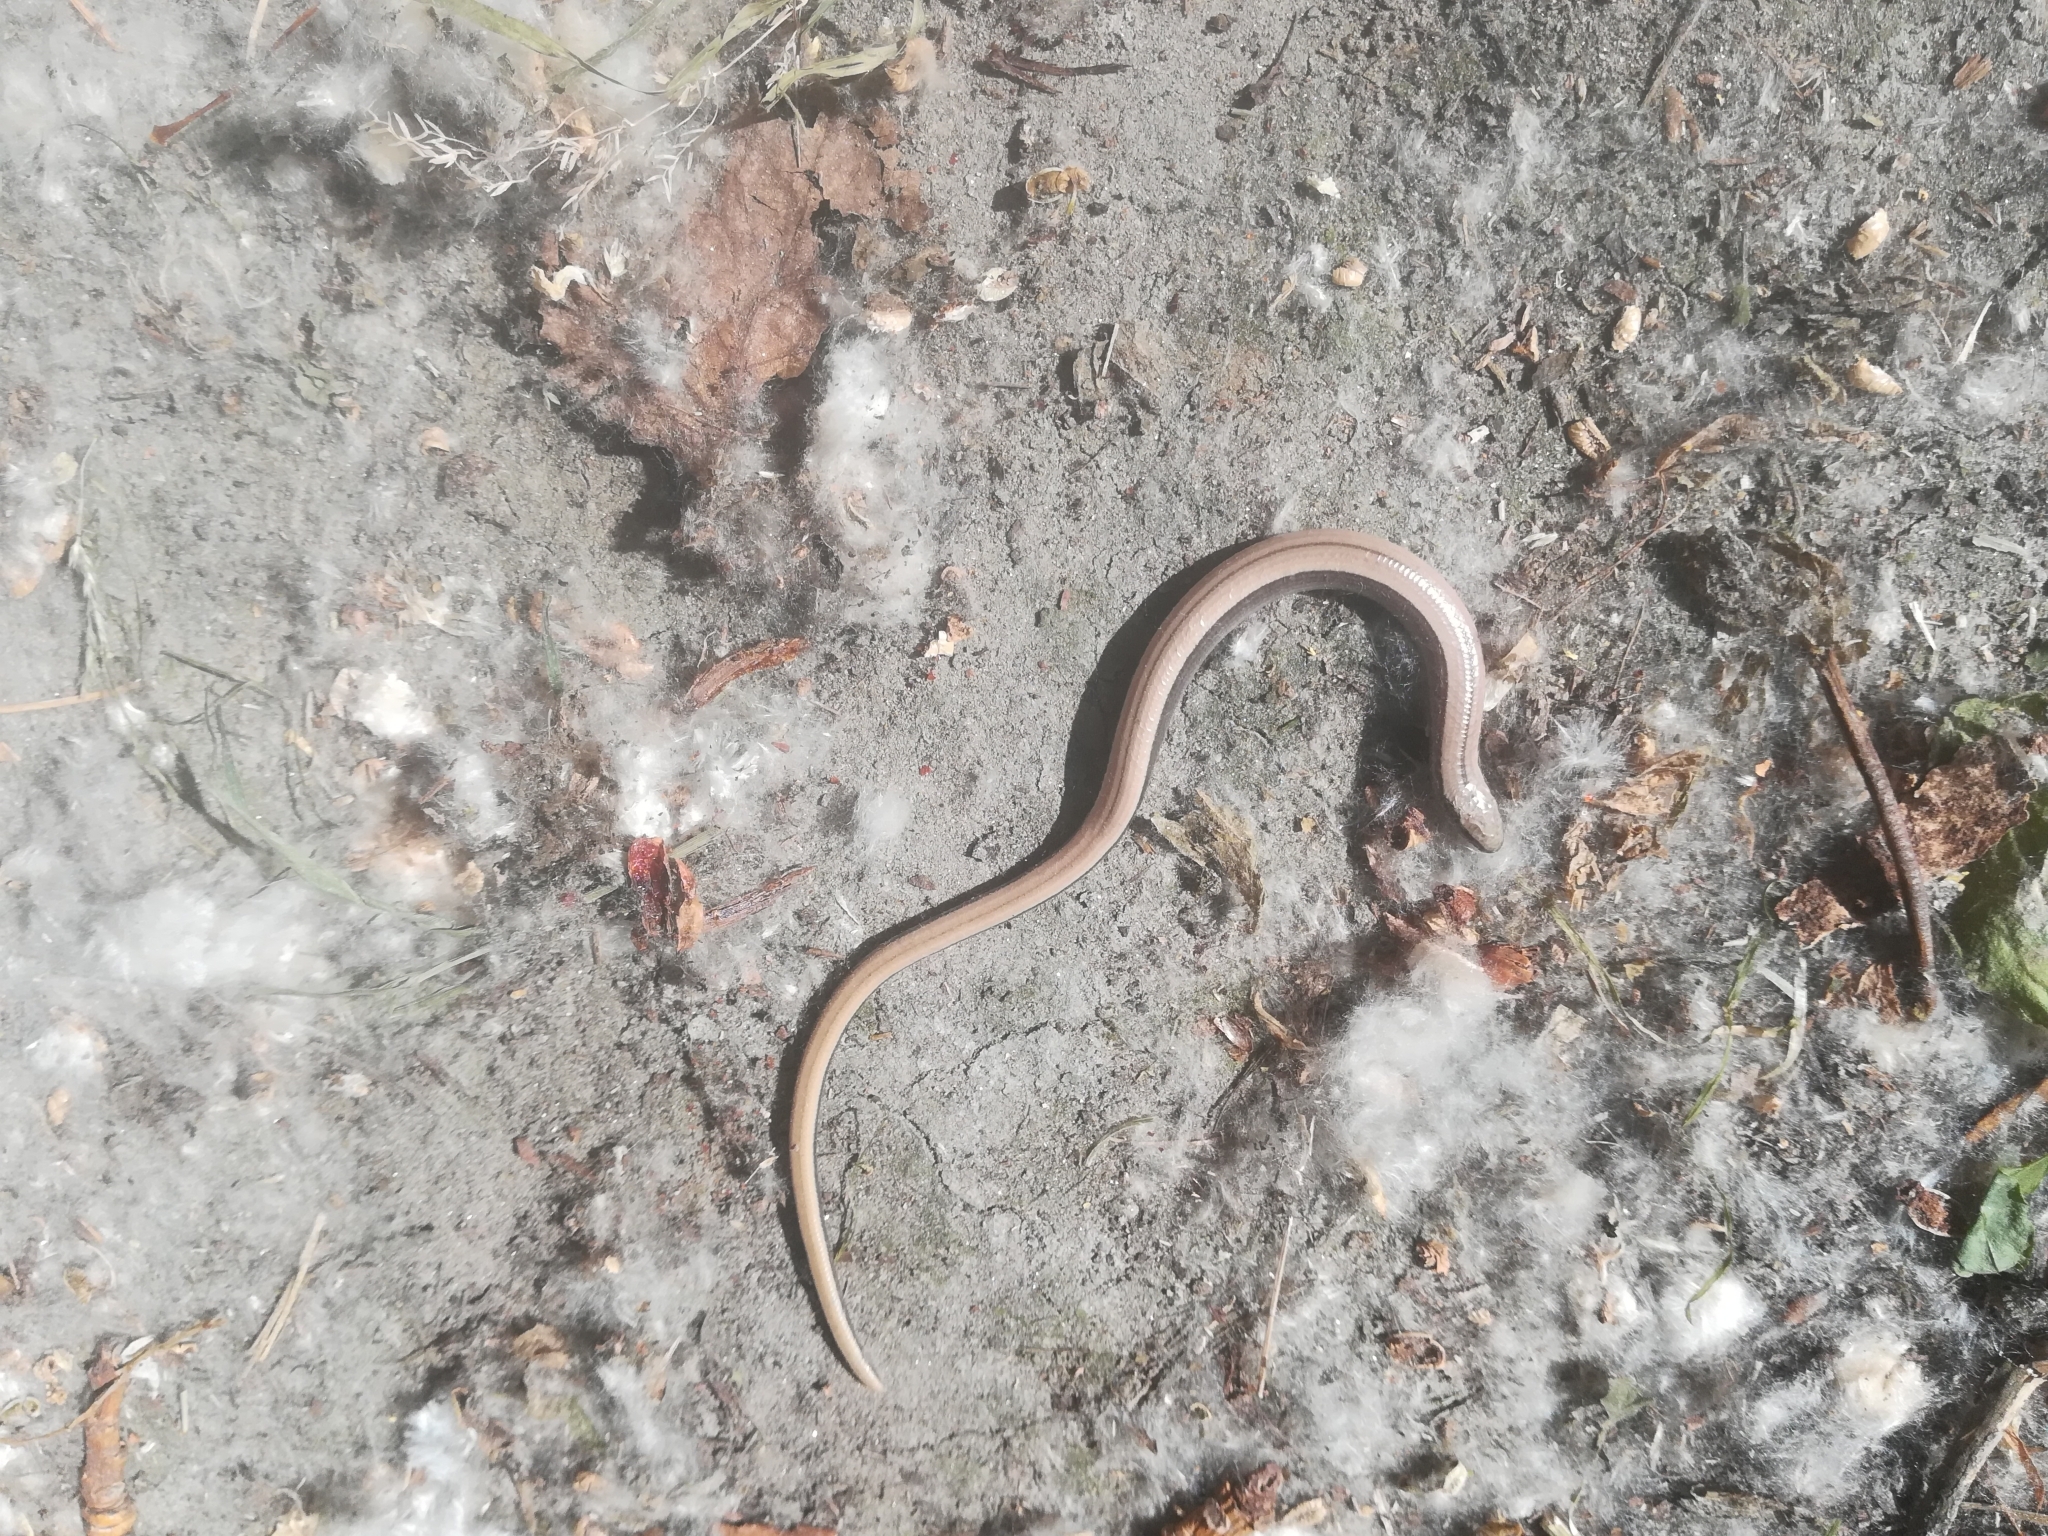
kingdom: Animalia
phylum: Chordata
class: Squamata
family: Anguidae
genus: Anguis
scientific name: Anguis fragilis
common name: Slow worm
